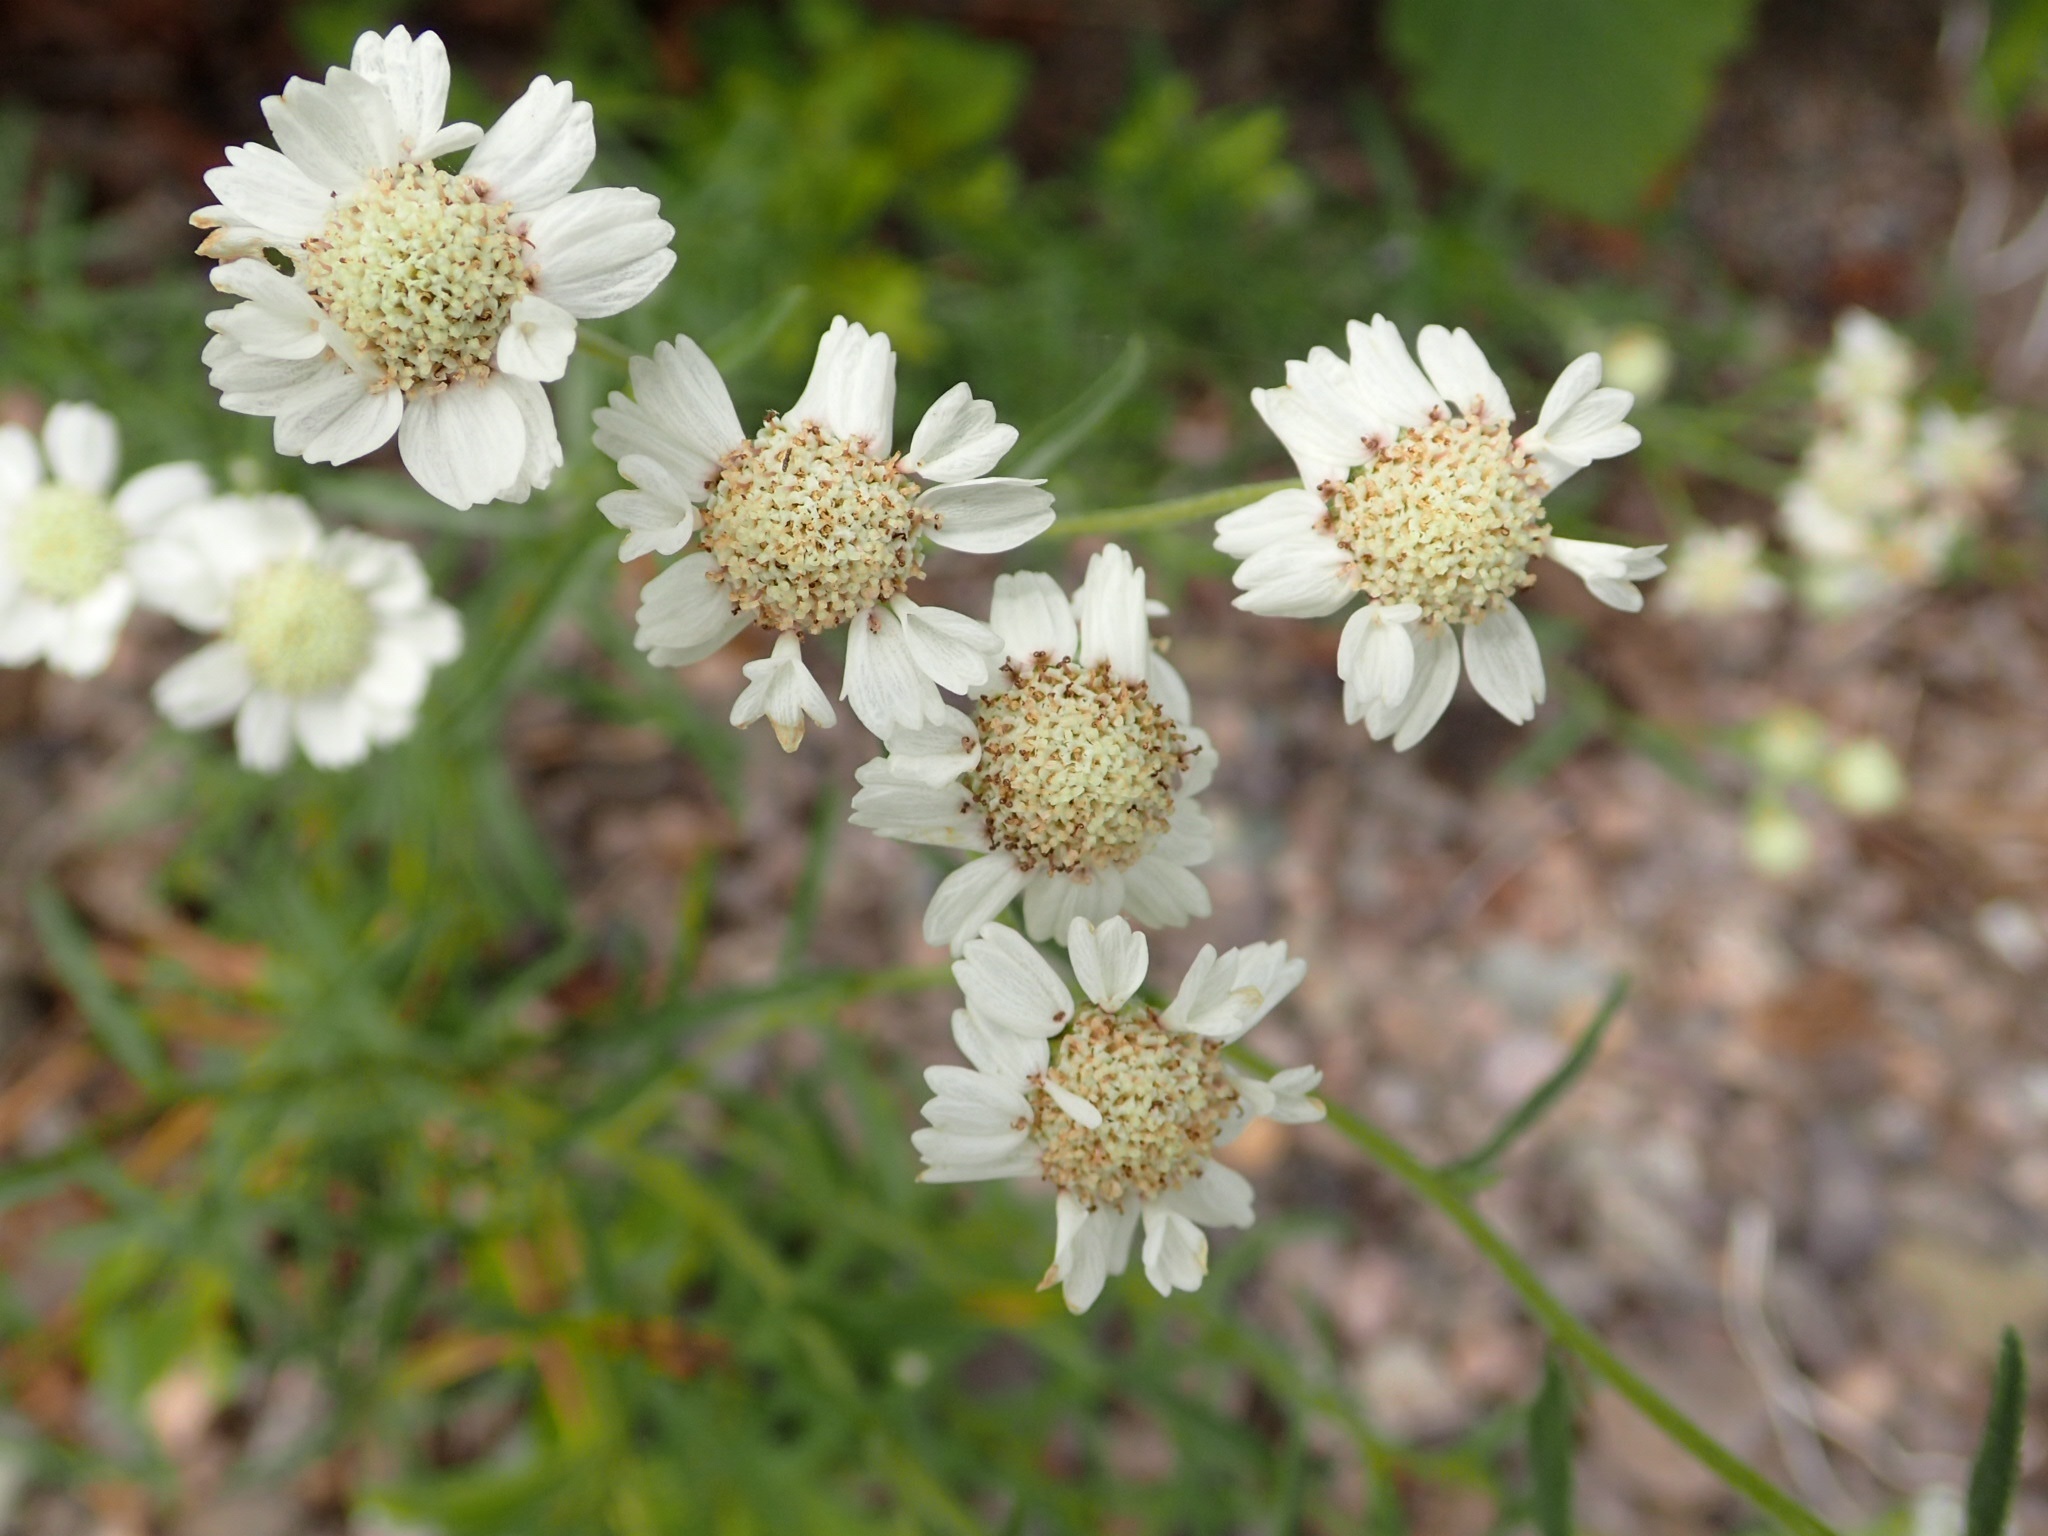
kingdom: Plantae
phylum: Tracheophyta
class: Magnoliopsida
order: Asterales
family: Asteraceae
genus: Achillea
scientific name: Achillea ptarmica
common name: Sneezeweed
